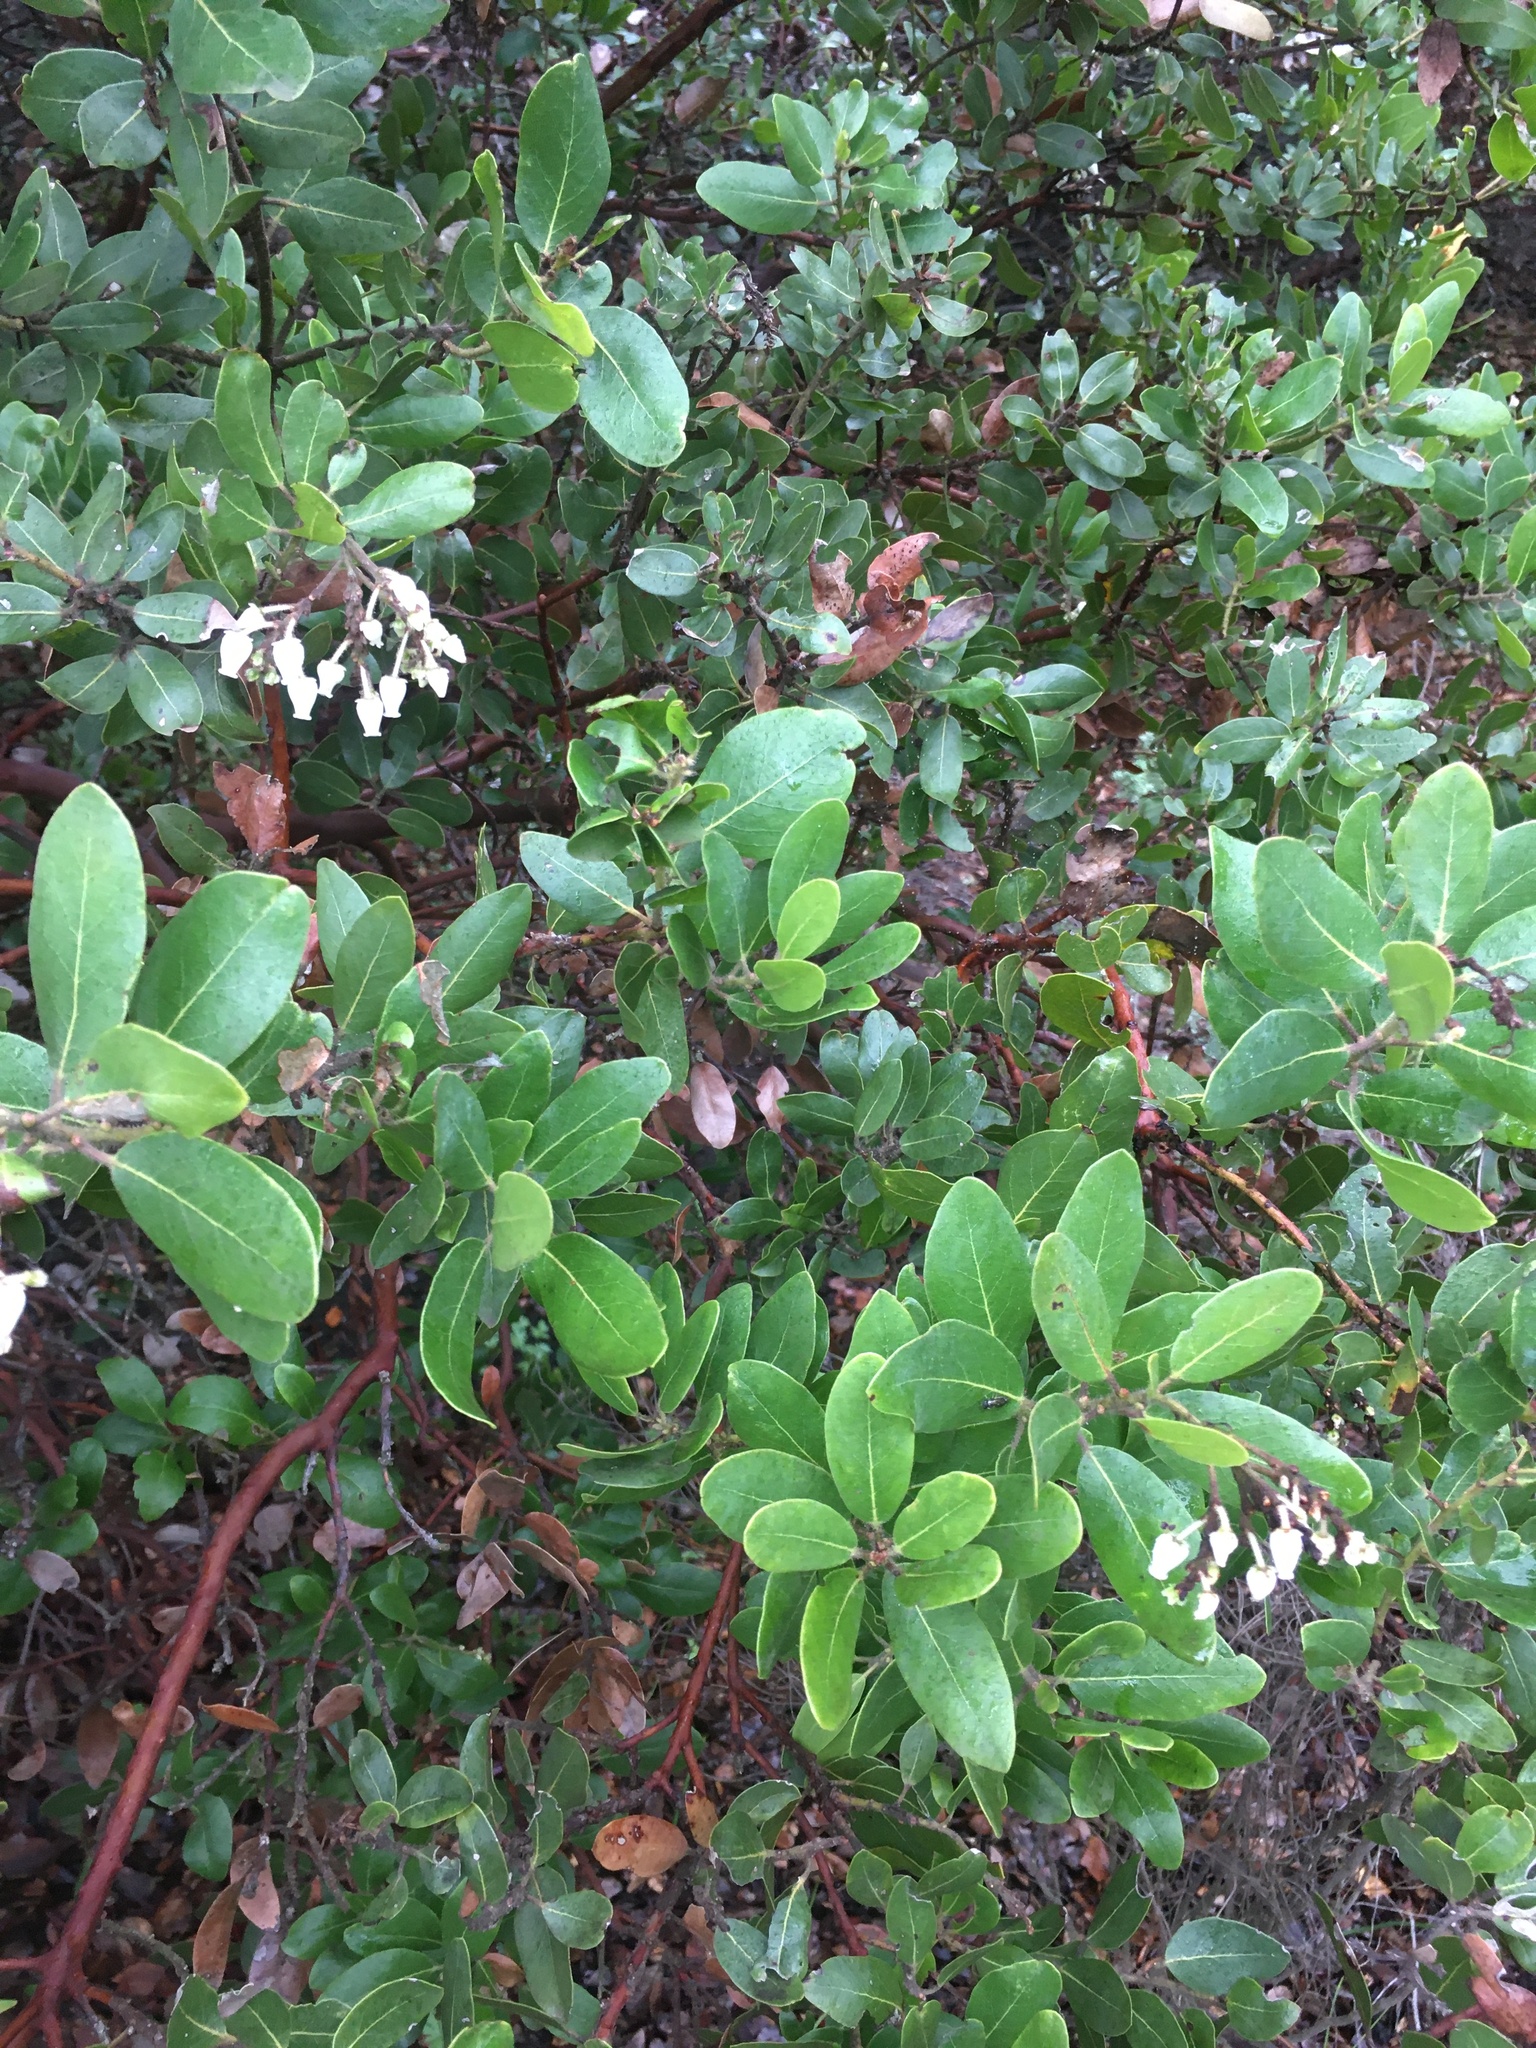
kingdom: Plantae
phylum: Tracheophyta
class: Magnoliopsida
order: Ericales
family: Ericaceae
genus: Arctostaphylos
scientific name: Arctostaphylos insularis
